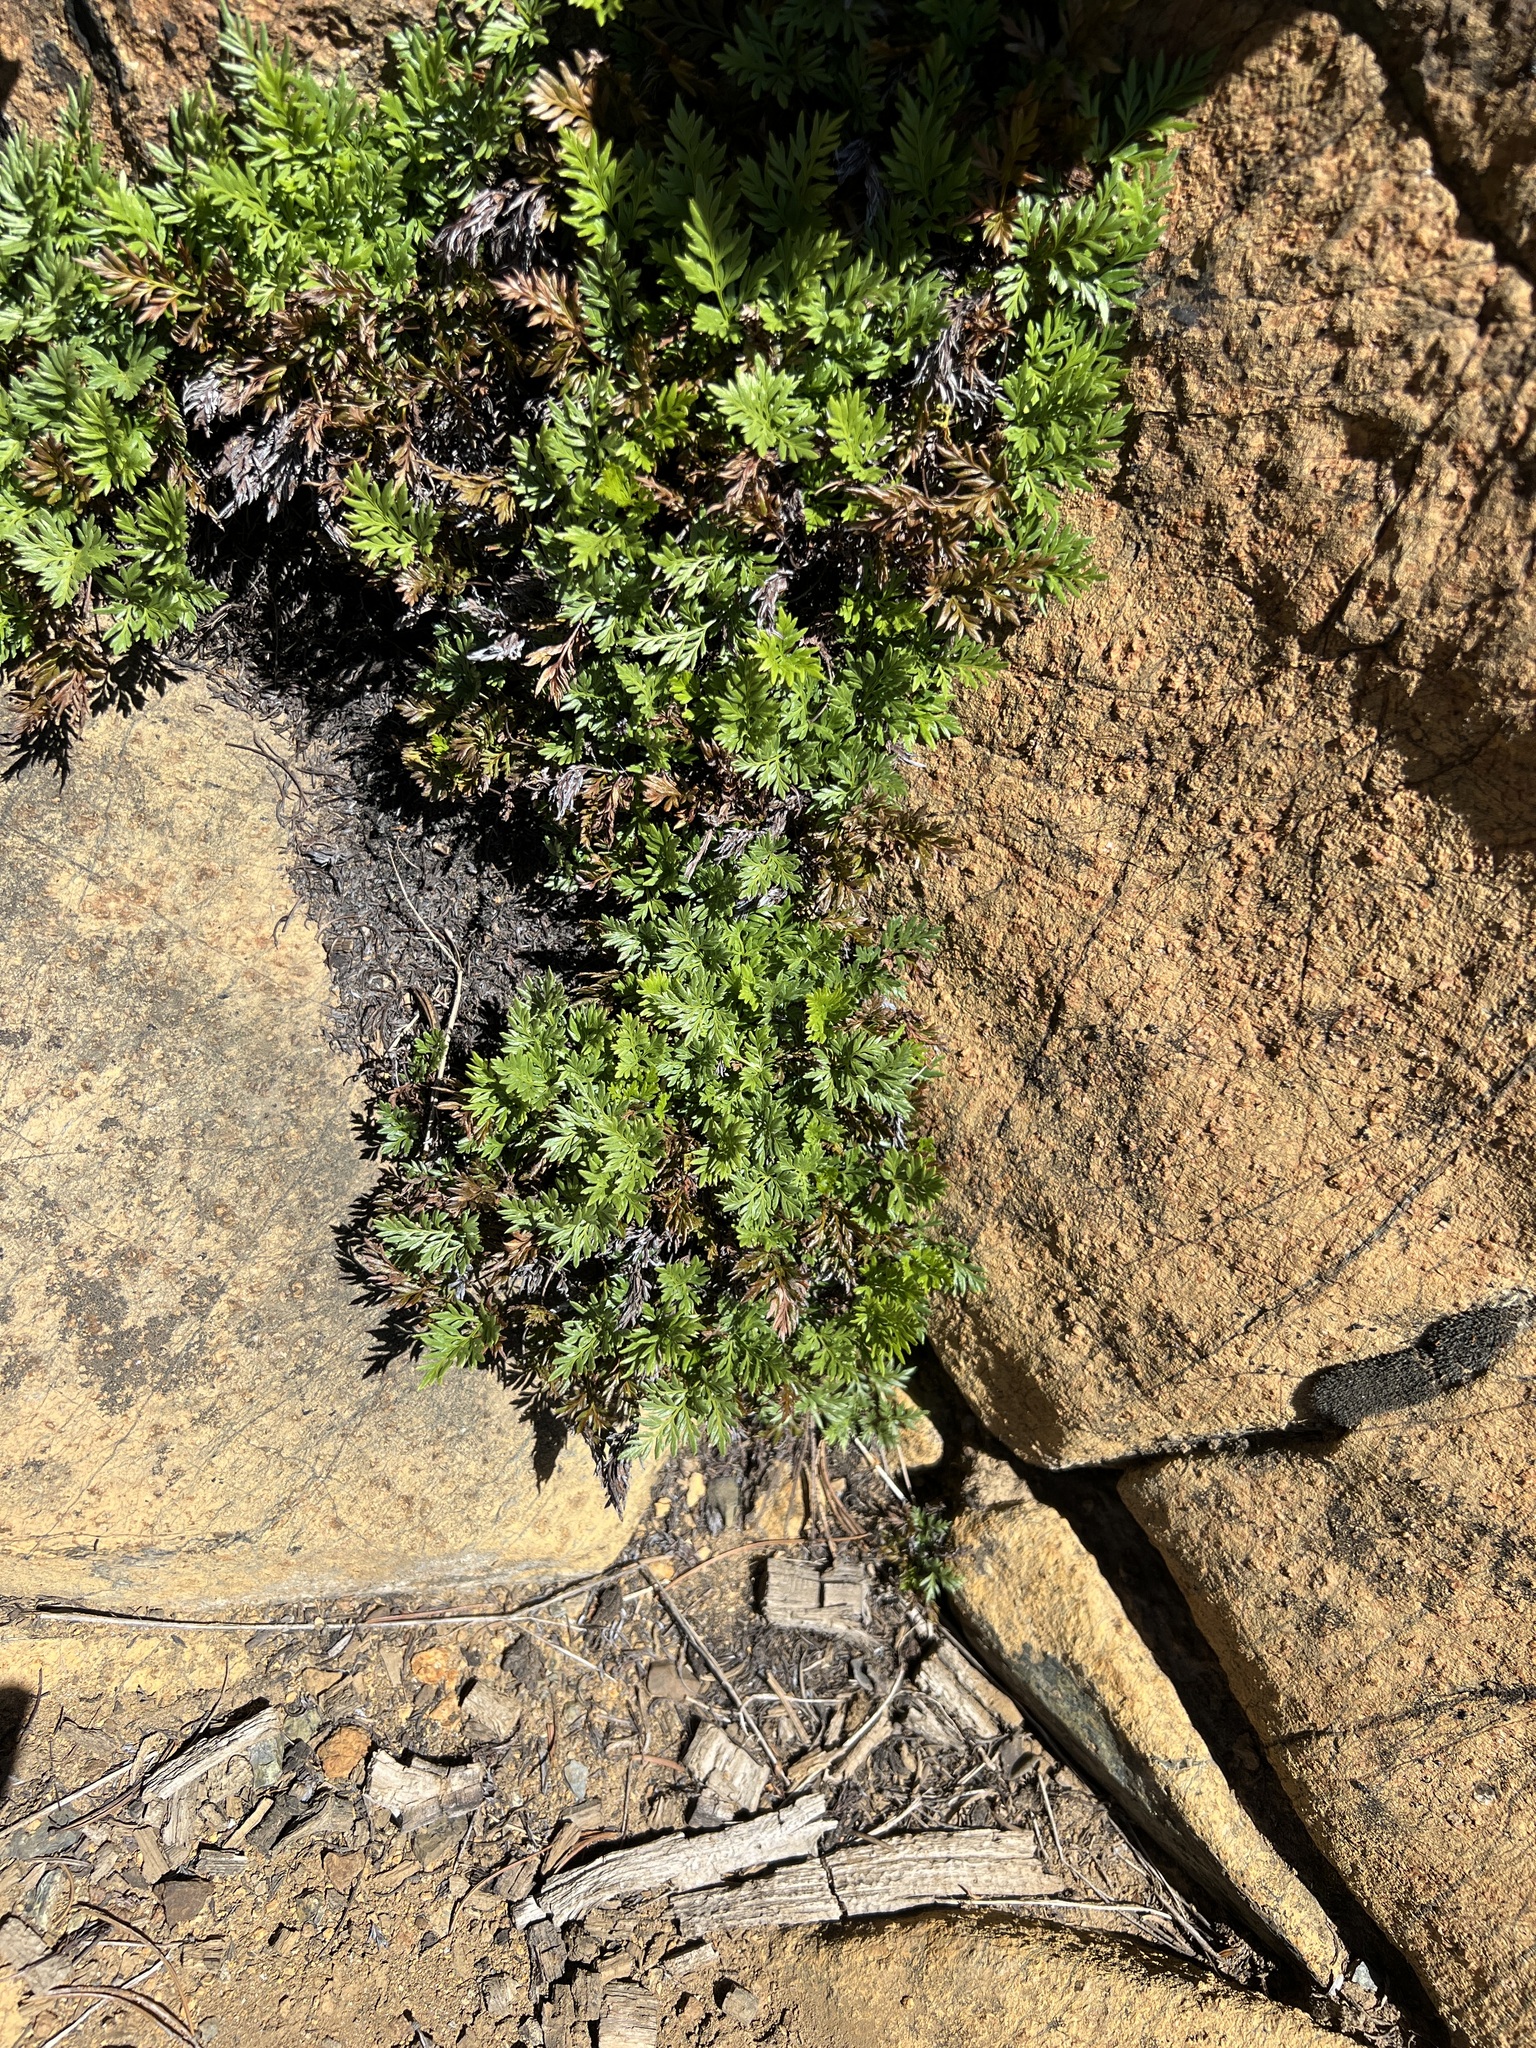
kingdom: Plantae
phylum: Tracheophyta
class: Polypodiopsida
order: Polypodiales
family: Pteridaceae
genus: Aspidotis
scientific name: Aspidotis densa
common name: Indian's dream
